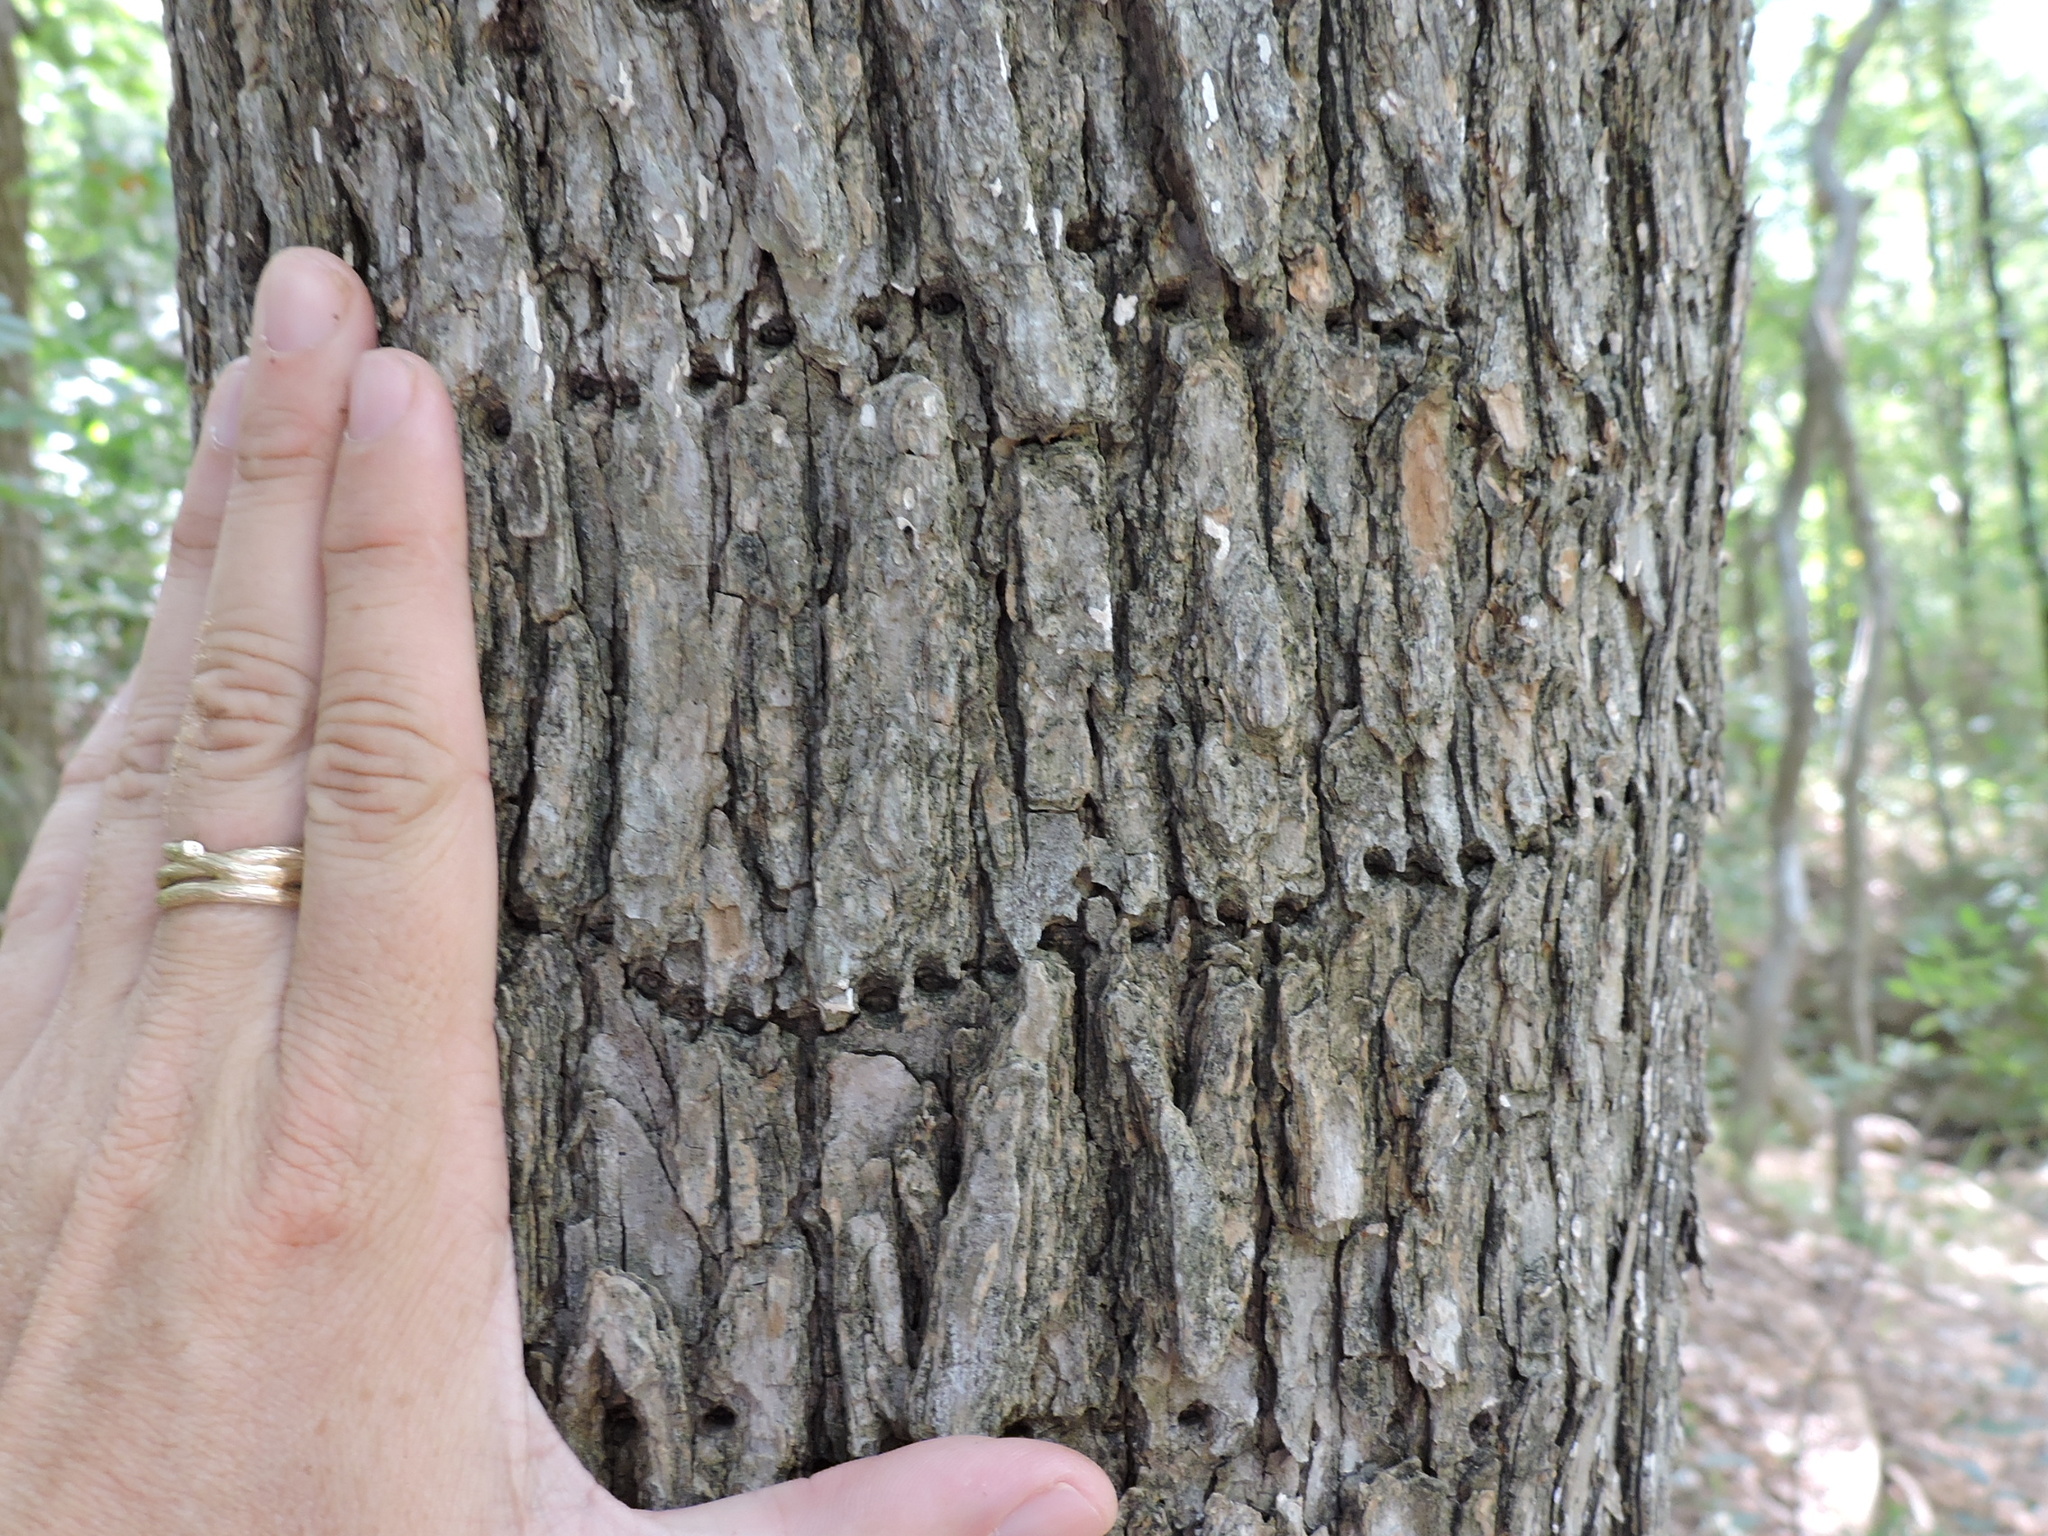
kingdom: Animalia
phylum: Chordata
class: Aves
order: Piciformes
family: Picidae
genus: Sphyrapicus
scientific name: Sphyrapicus varius
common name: Yellow-bellied sapsucker
